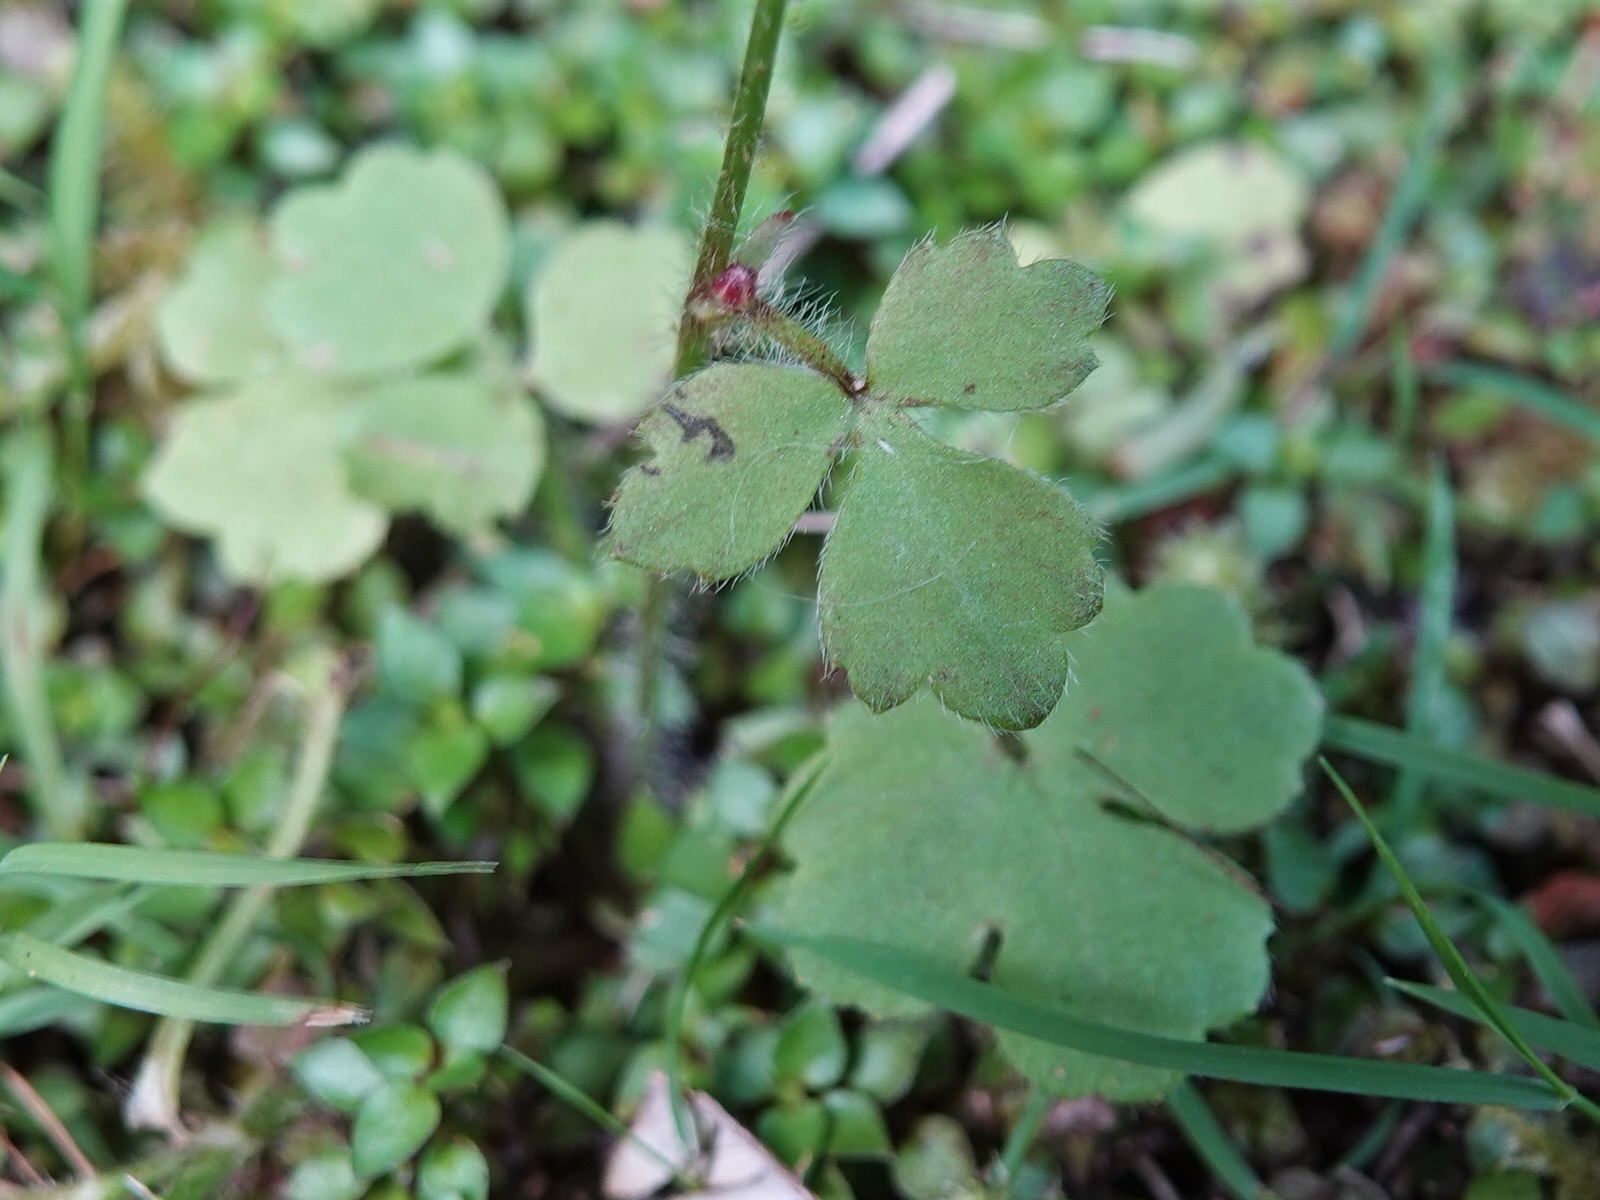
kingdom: Plantae
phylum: Tracheophyta
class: Magnoliopsida
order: Ranunculales
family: Ranunculaceae
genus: Ranunculus
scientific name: Ranunculus reflexus
